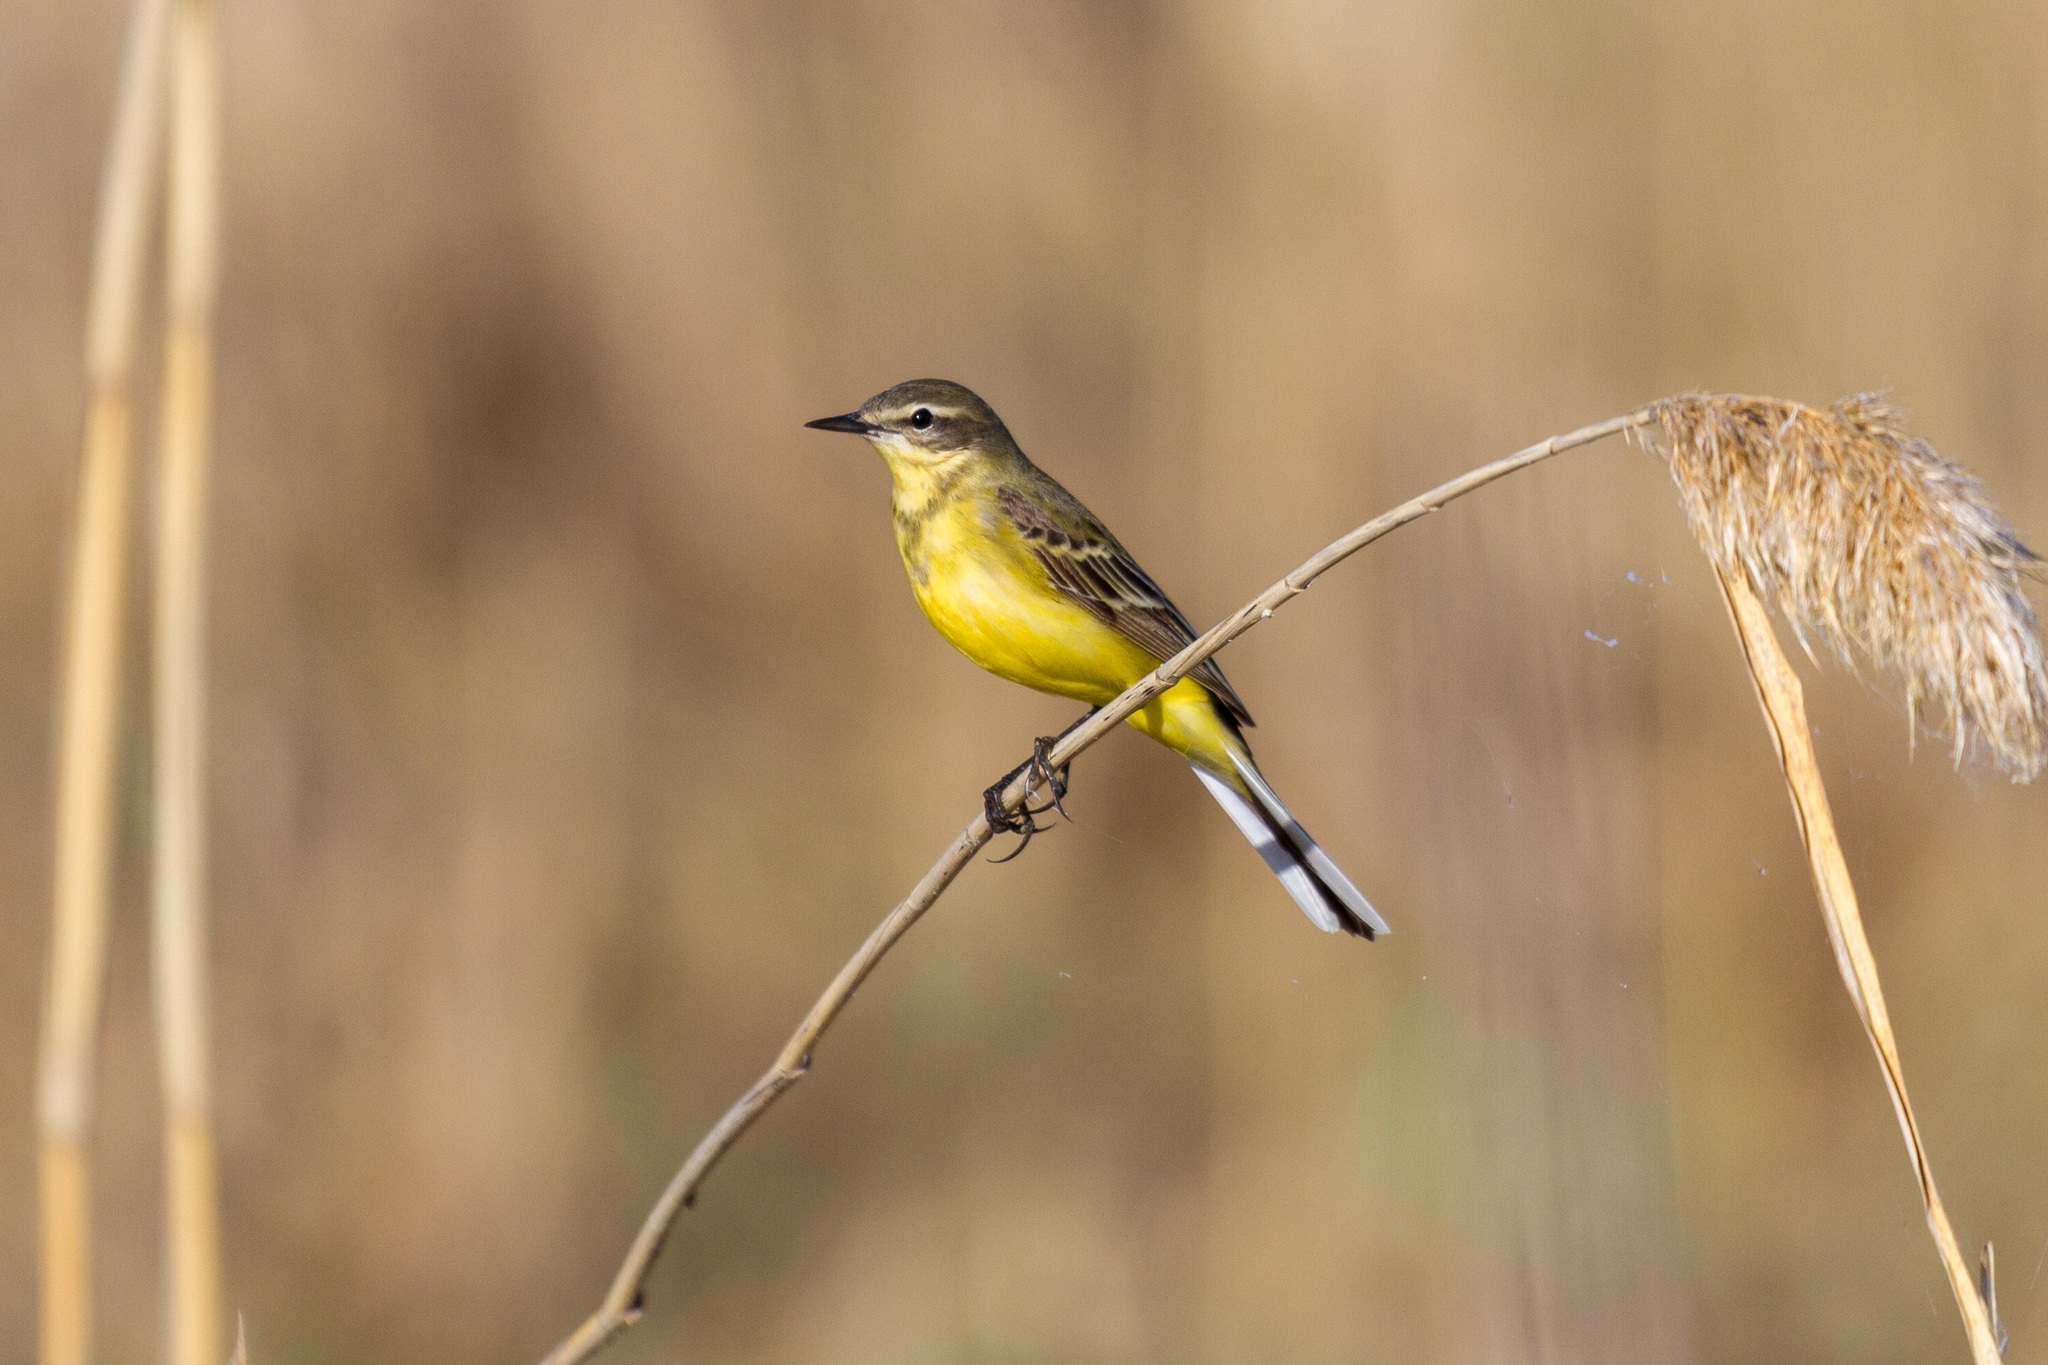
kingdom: Animalia
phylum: Chordata
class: Aves
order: Passeriformes
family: Motacillidae
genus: Motacilla
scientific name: Motacilla flava
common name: Western yellow wagtail
